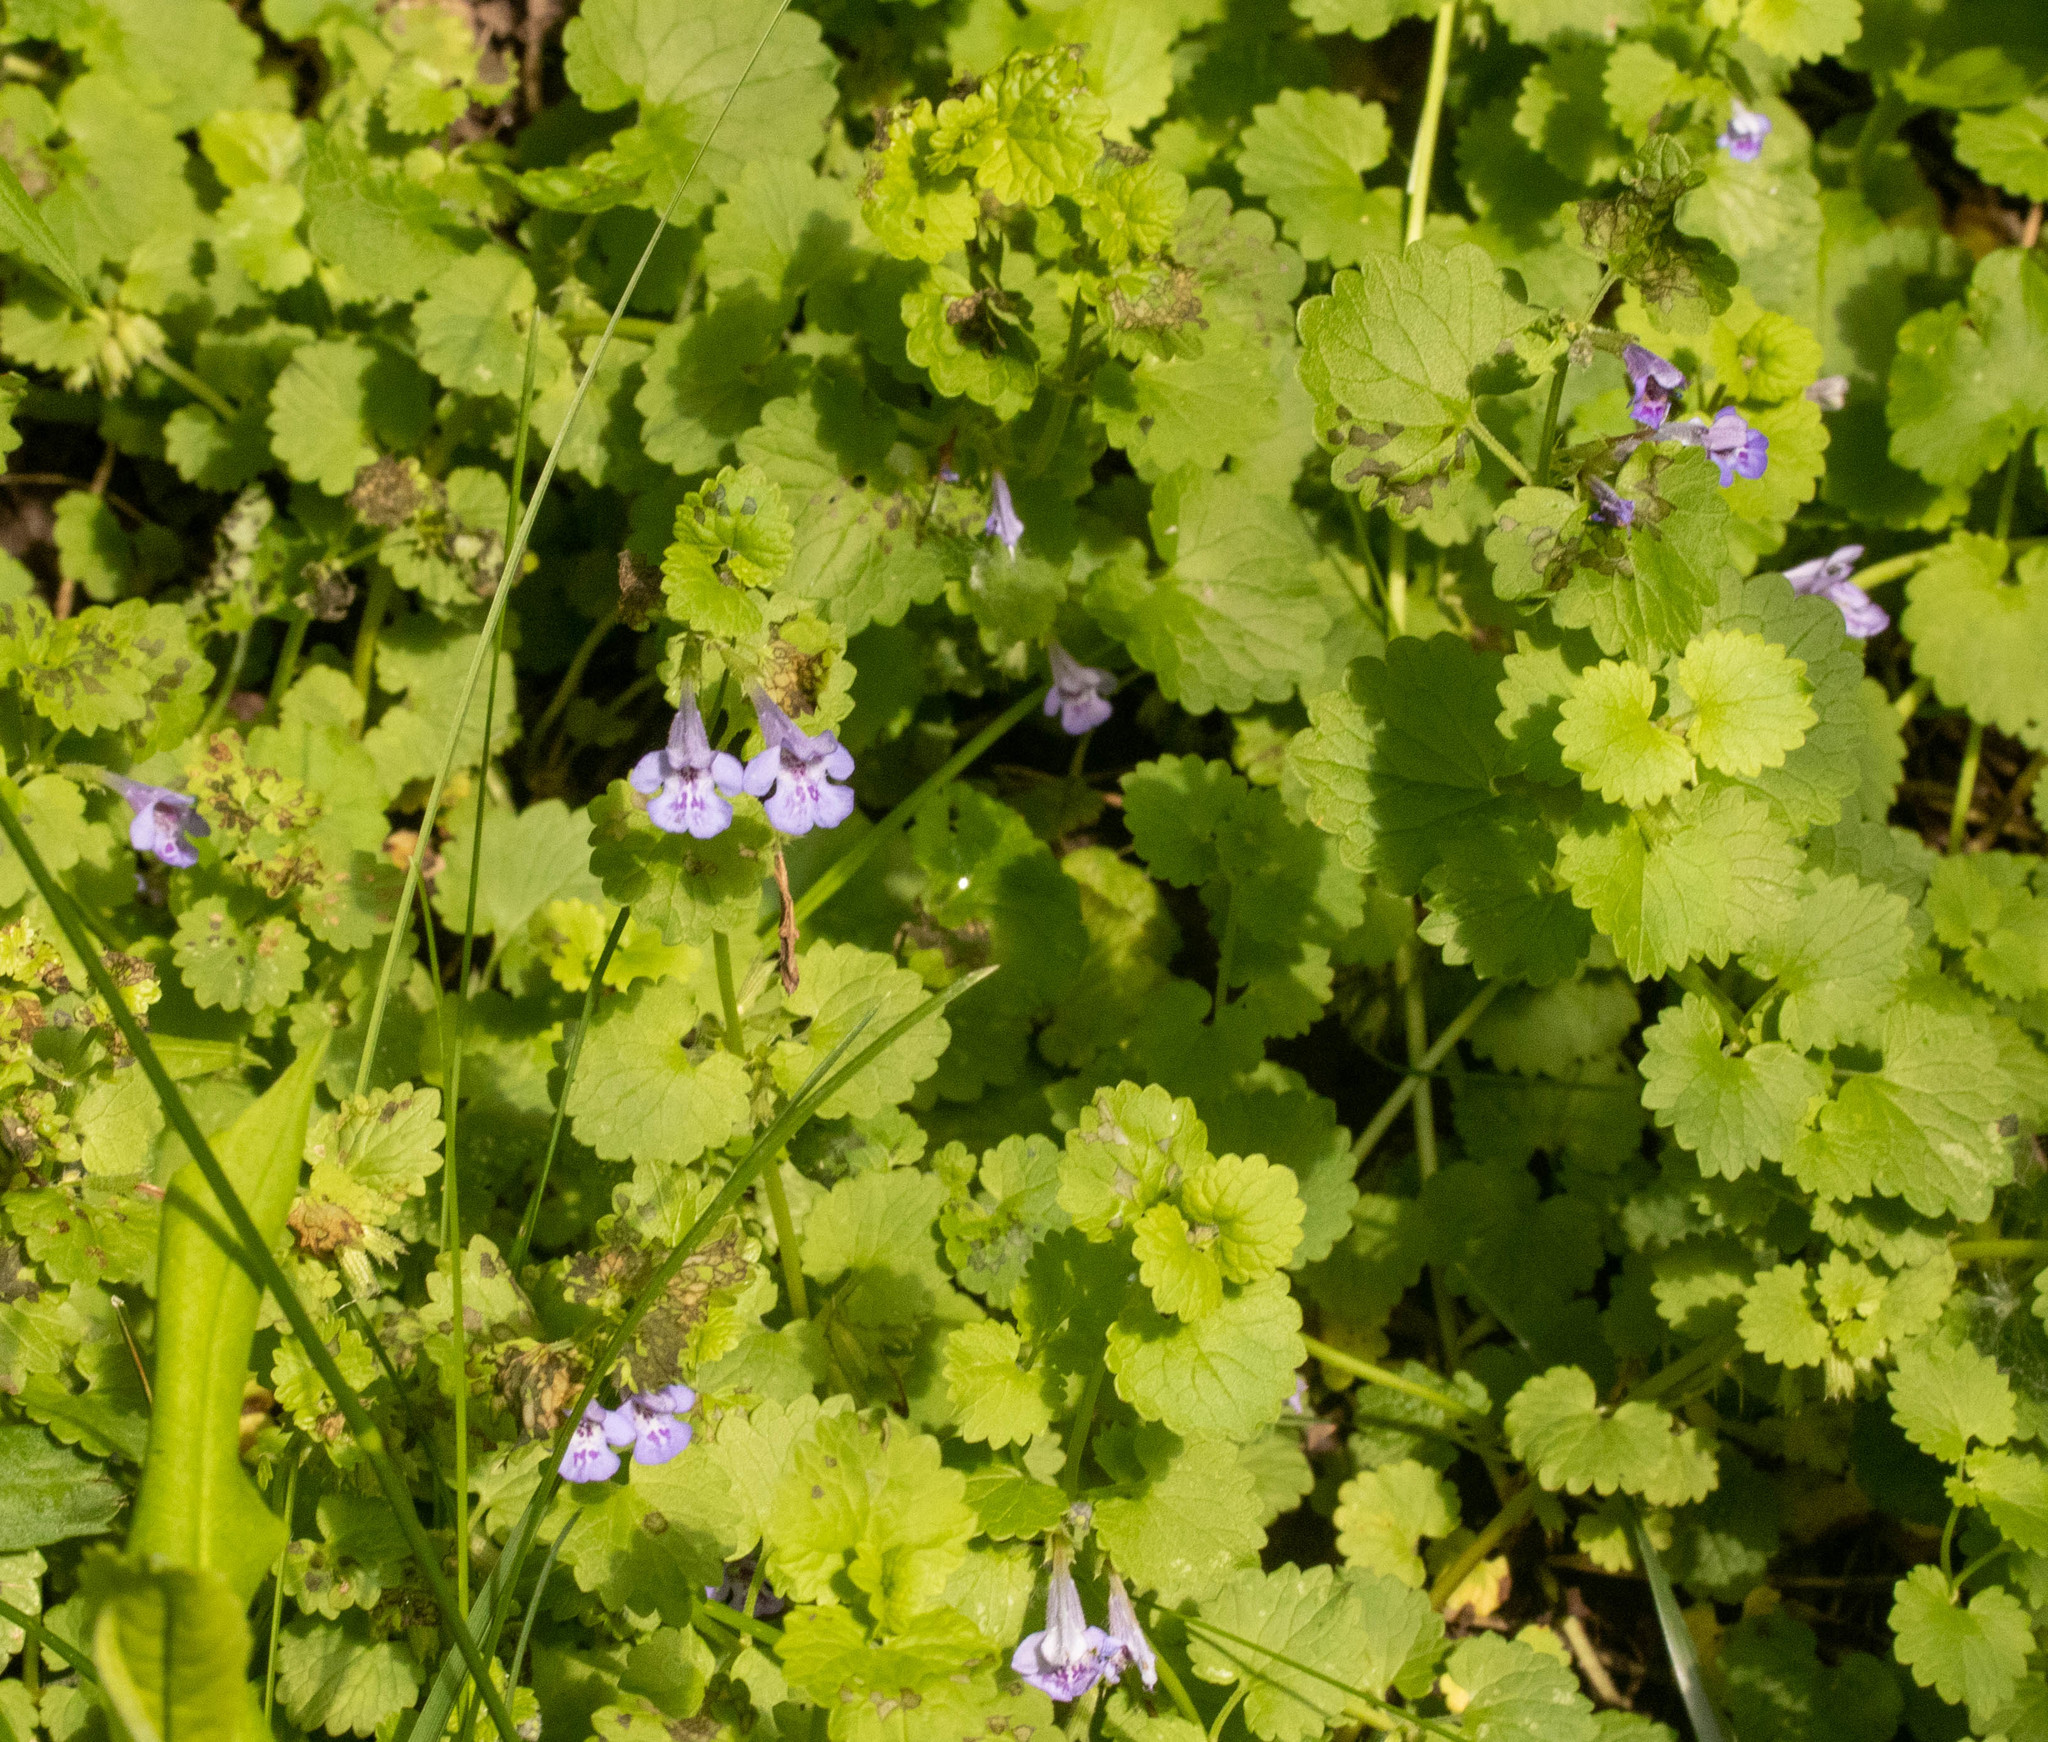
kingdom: Plantae
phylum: Tracheophyta
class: Magnoliopsida
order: Lamiales
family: Lamiaceae
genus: Glechoma
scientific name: Glechoma hederacea
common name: Ground ivy
